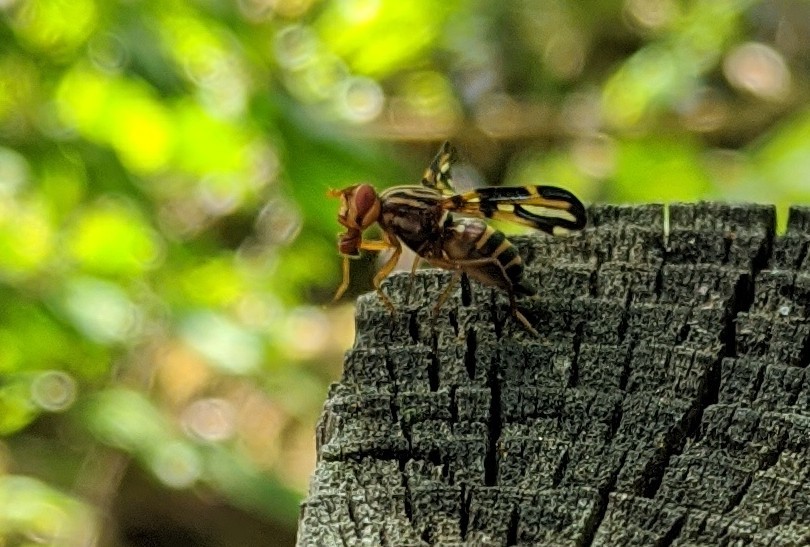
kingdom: Animalia
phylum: Arthropoda
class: Insecta
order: Diptera
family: Ulidiidae
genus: Idana
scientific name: Idana marginata
